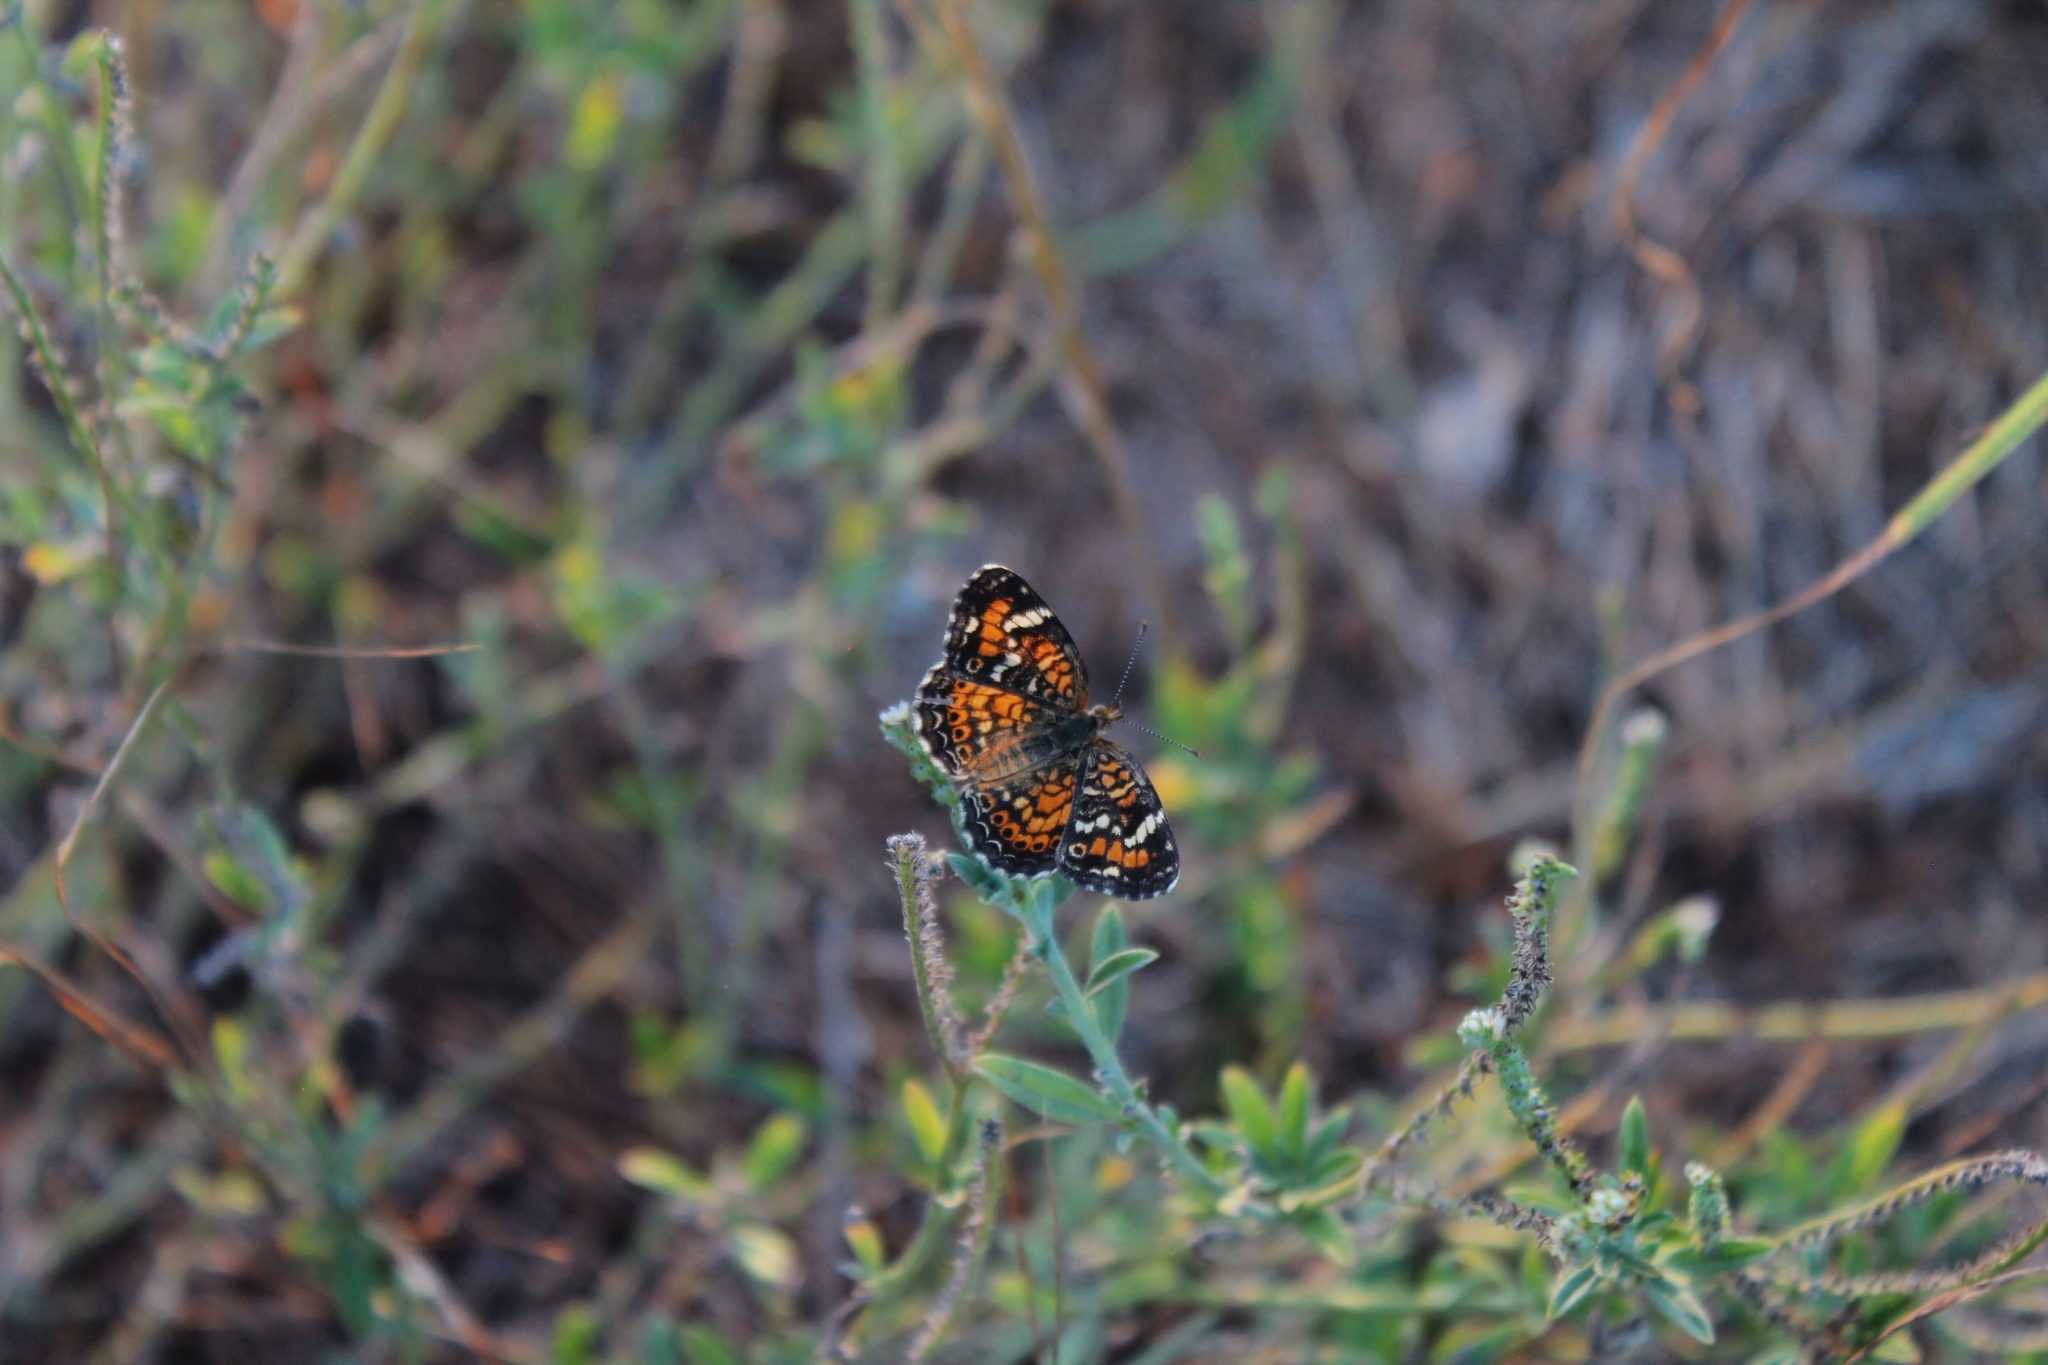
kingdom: Animalia
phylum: Arthropoda
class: Insecta
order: Lepidoptera
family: Nymphalidae
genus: Phyciodes
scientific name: Phyciodes
